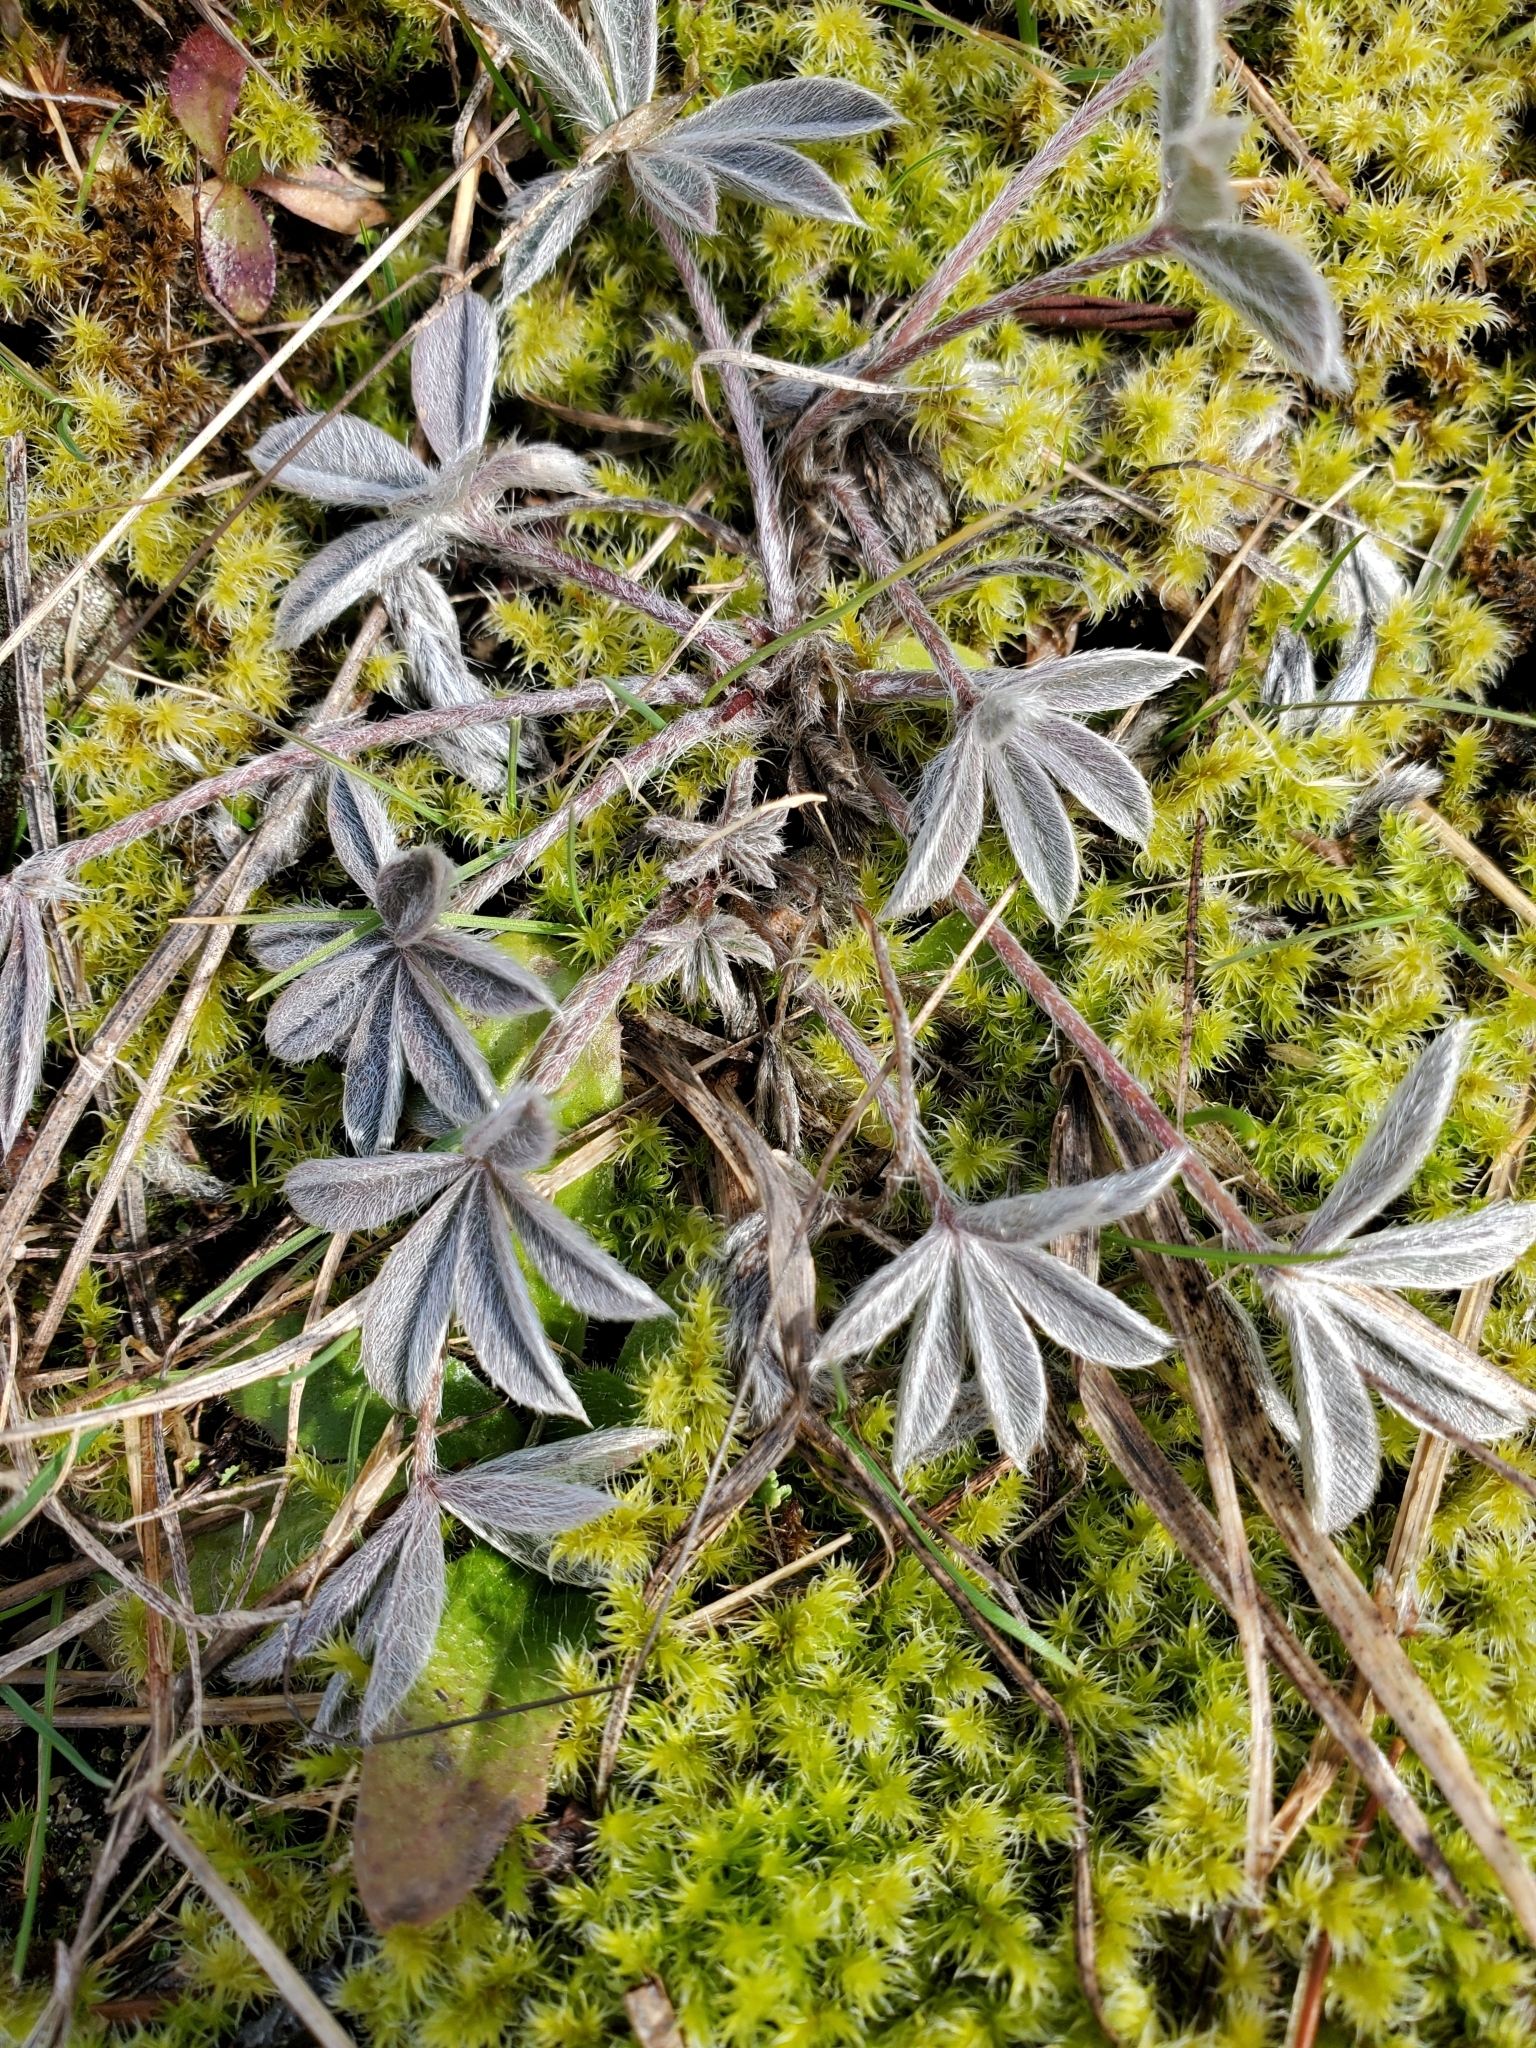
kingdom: Plantae
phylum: Tracheophyta
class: Magnoliopsida
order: Fabales
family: Fabaceae
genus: Lupinus
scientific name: Lupinus lepidus
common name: Prairie lupine
